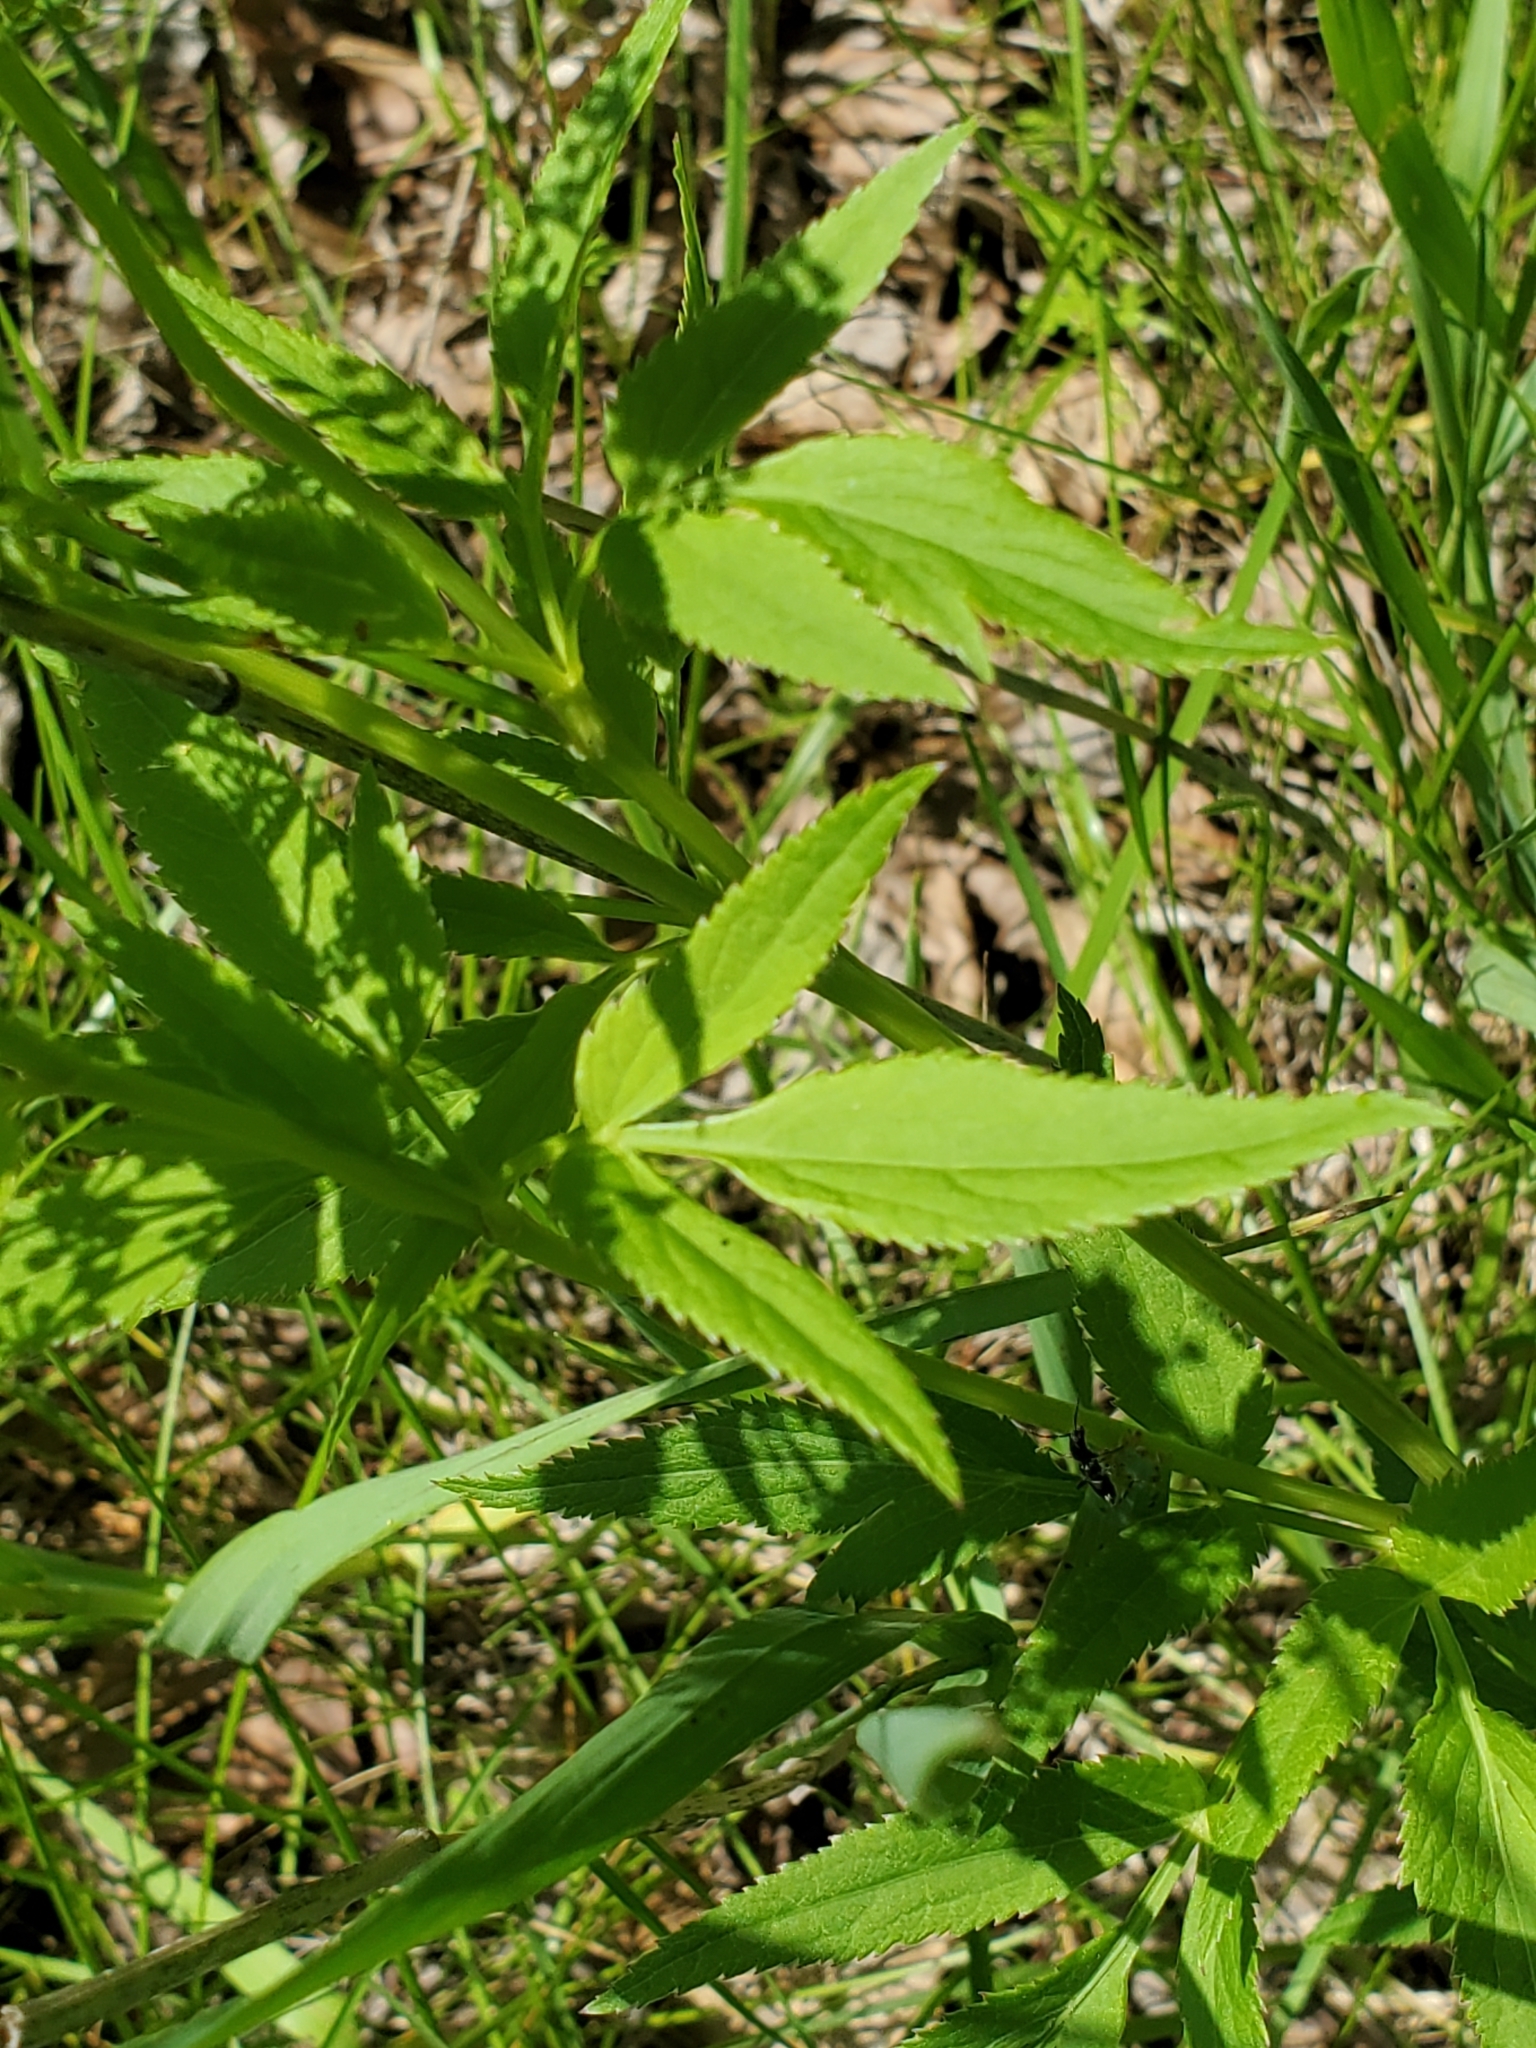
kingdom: Plantae
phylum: Tracheophyta
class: Magnoliopsida
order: Apiales
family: Apiaceae
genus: Zizia
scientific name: Zizia aurea
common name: Golden alexanders
